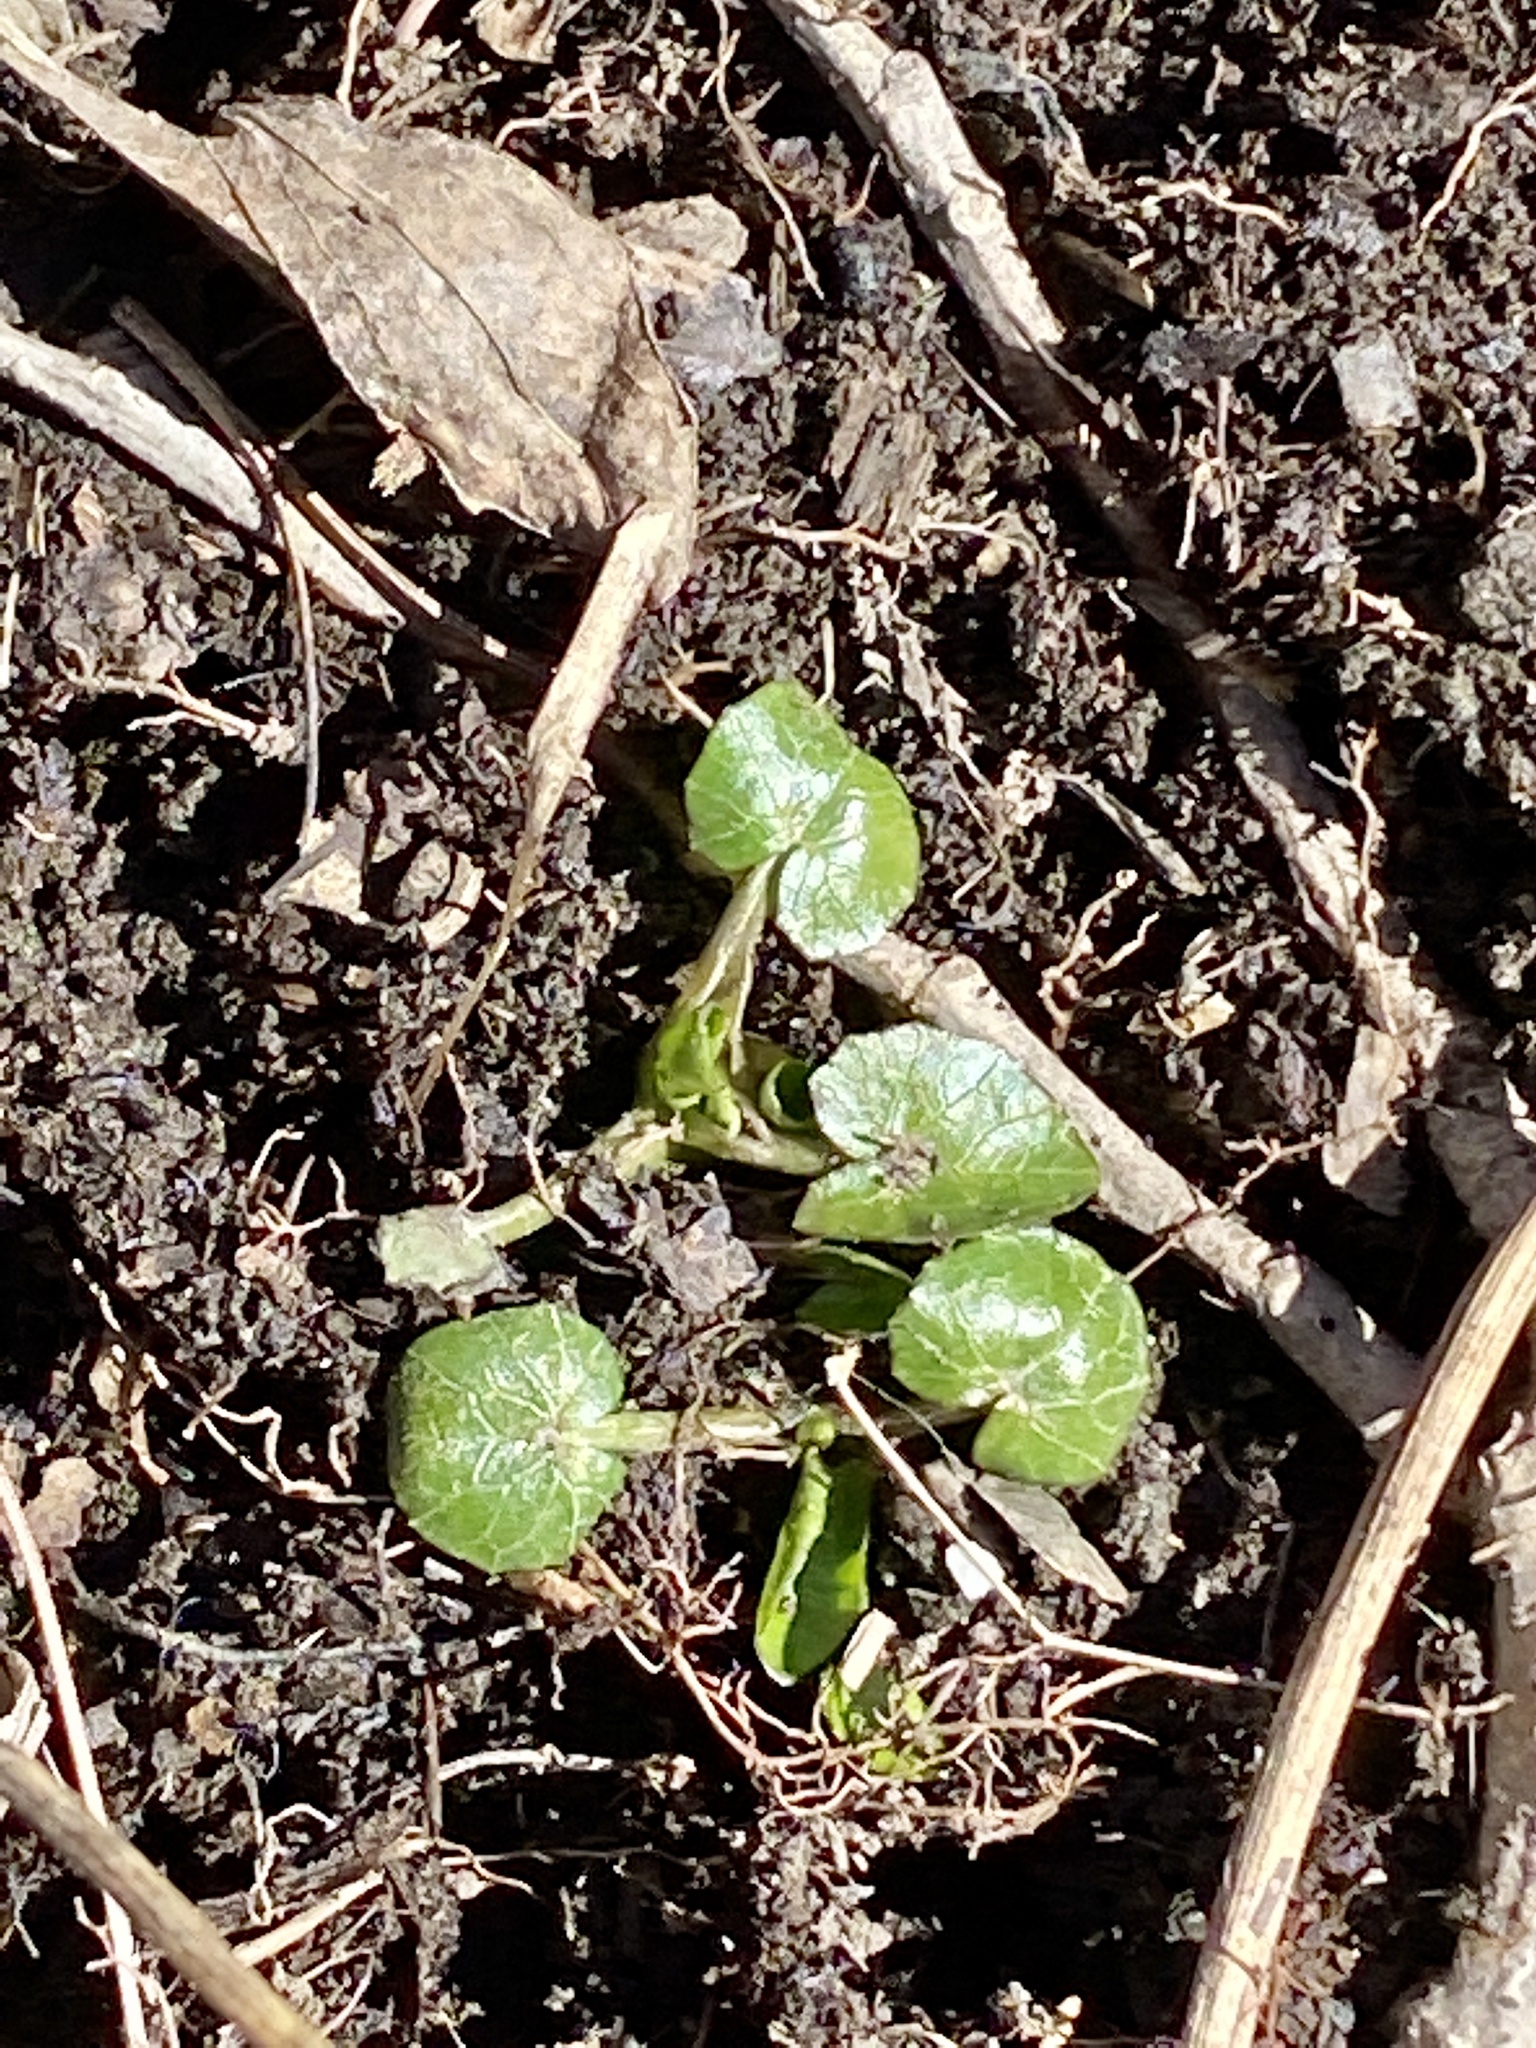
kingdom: Plantae
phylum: Tracheophyta
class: Magnoliopsida
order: Ranunculales
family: Ranunculaceae
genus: Ficaria
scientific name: Ficaria verna
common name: Lesser celandine
